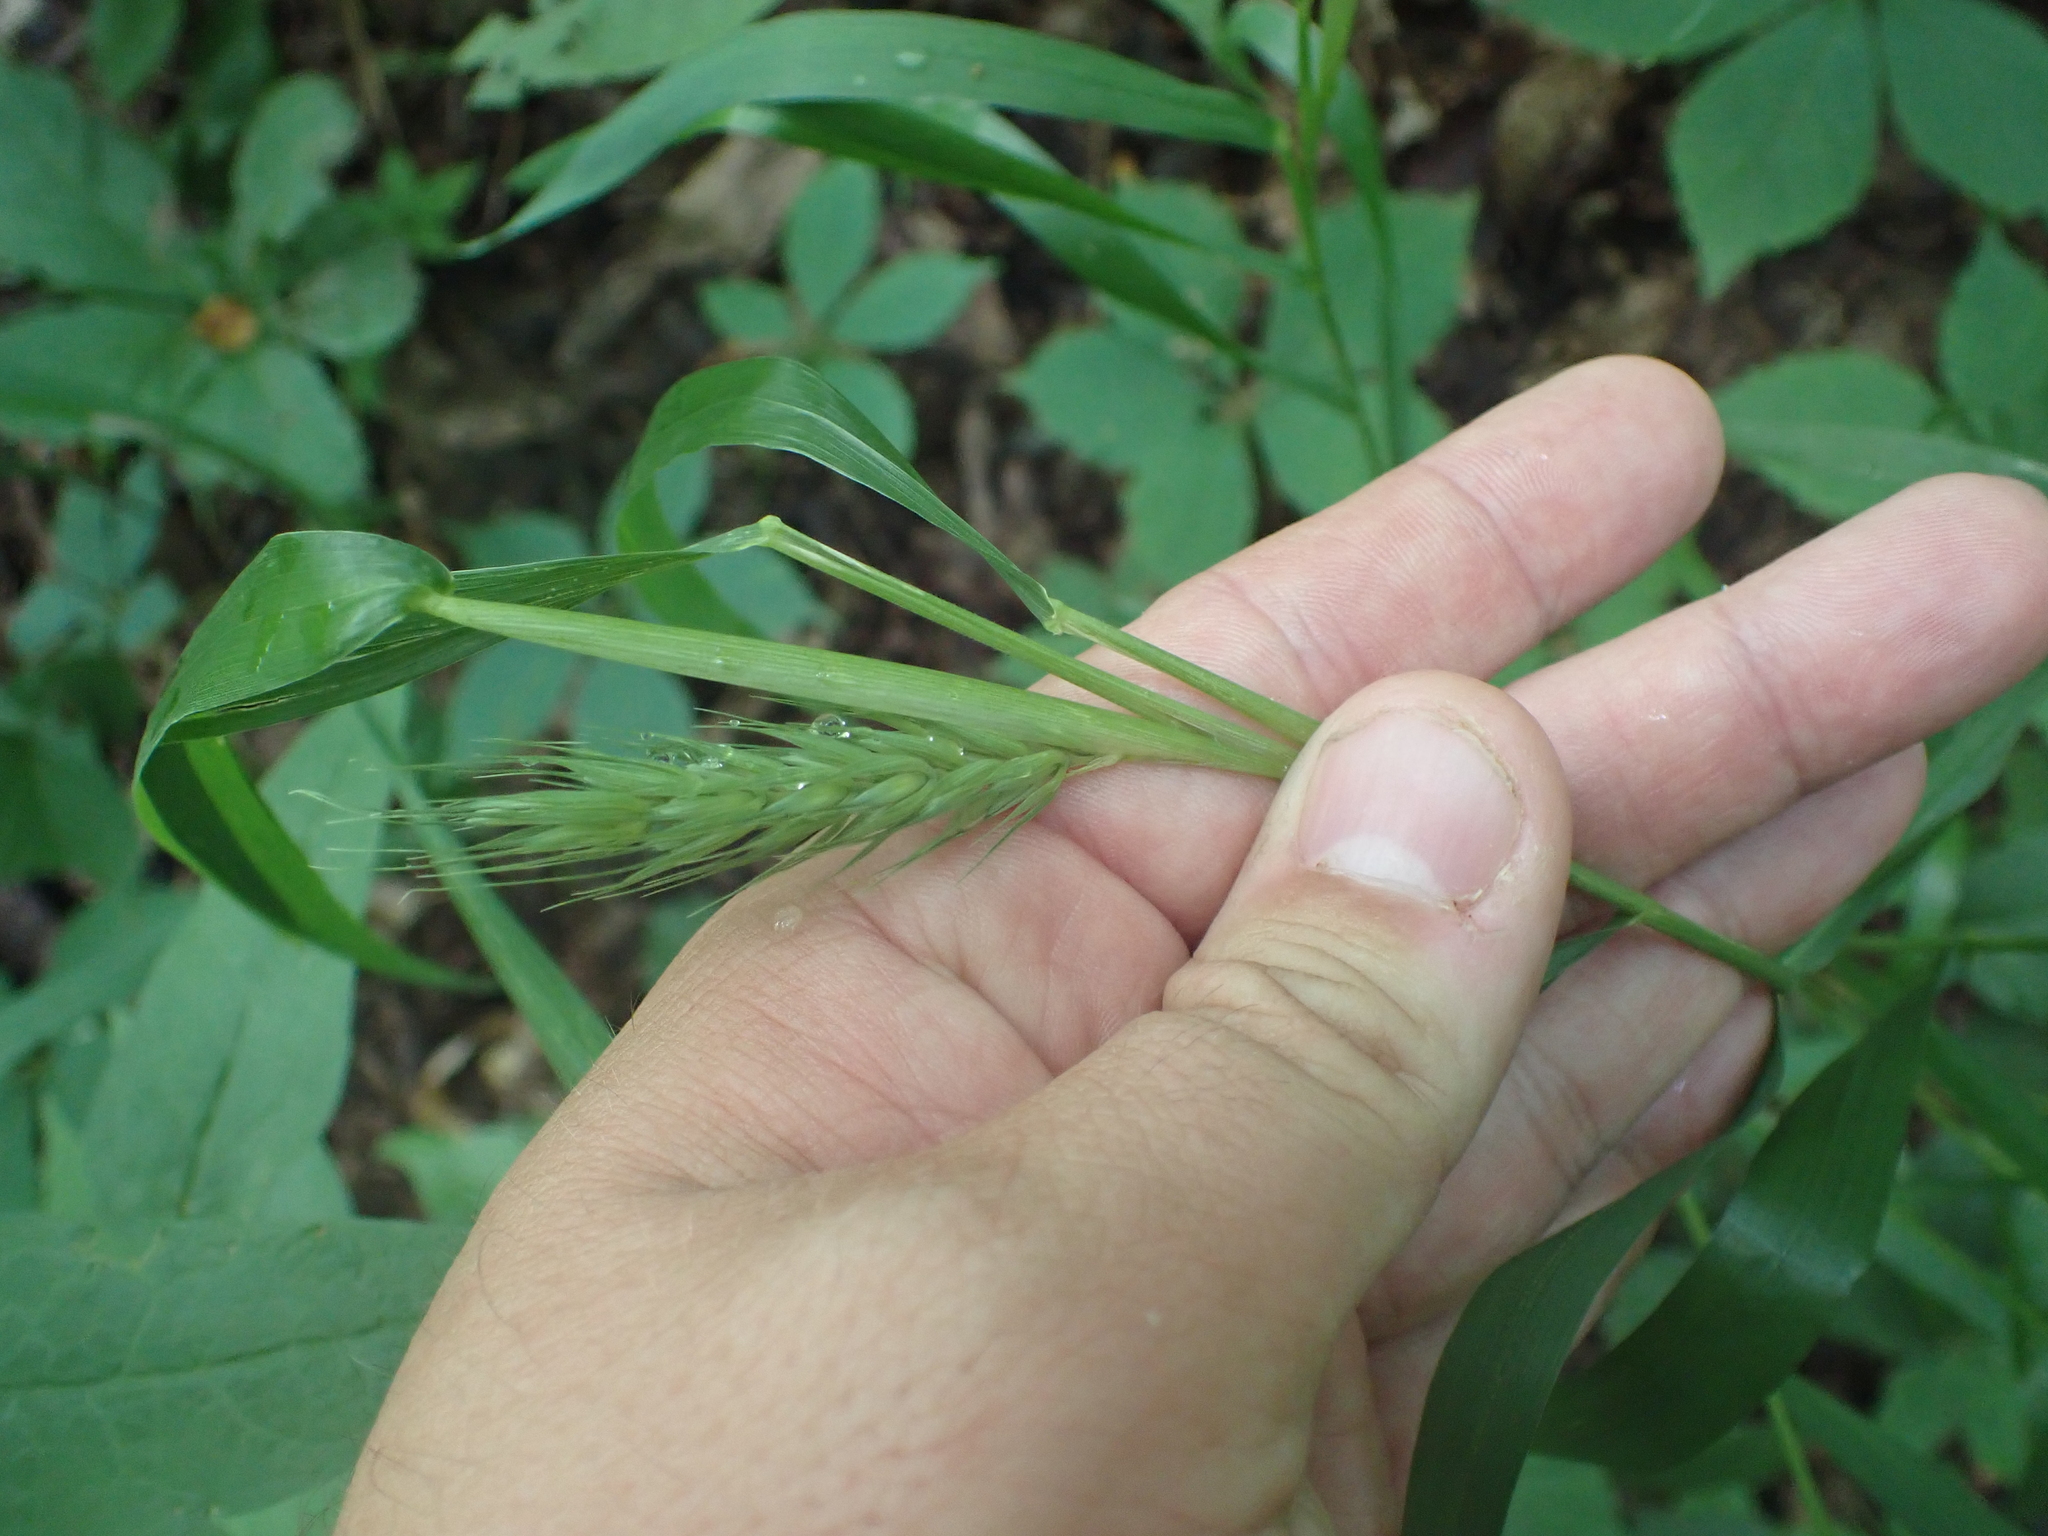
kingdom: Plantae
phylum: Tracheophyta
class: Liliopsida
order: Poales
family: Poaceae
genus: Elymus
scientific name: Elymus virginicus
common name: Common eastern wildrye
